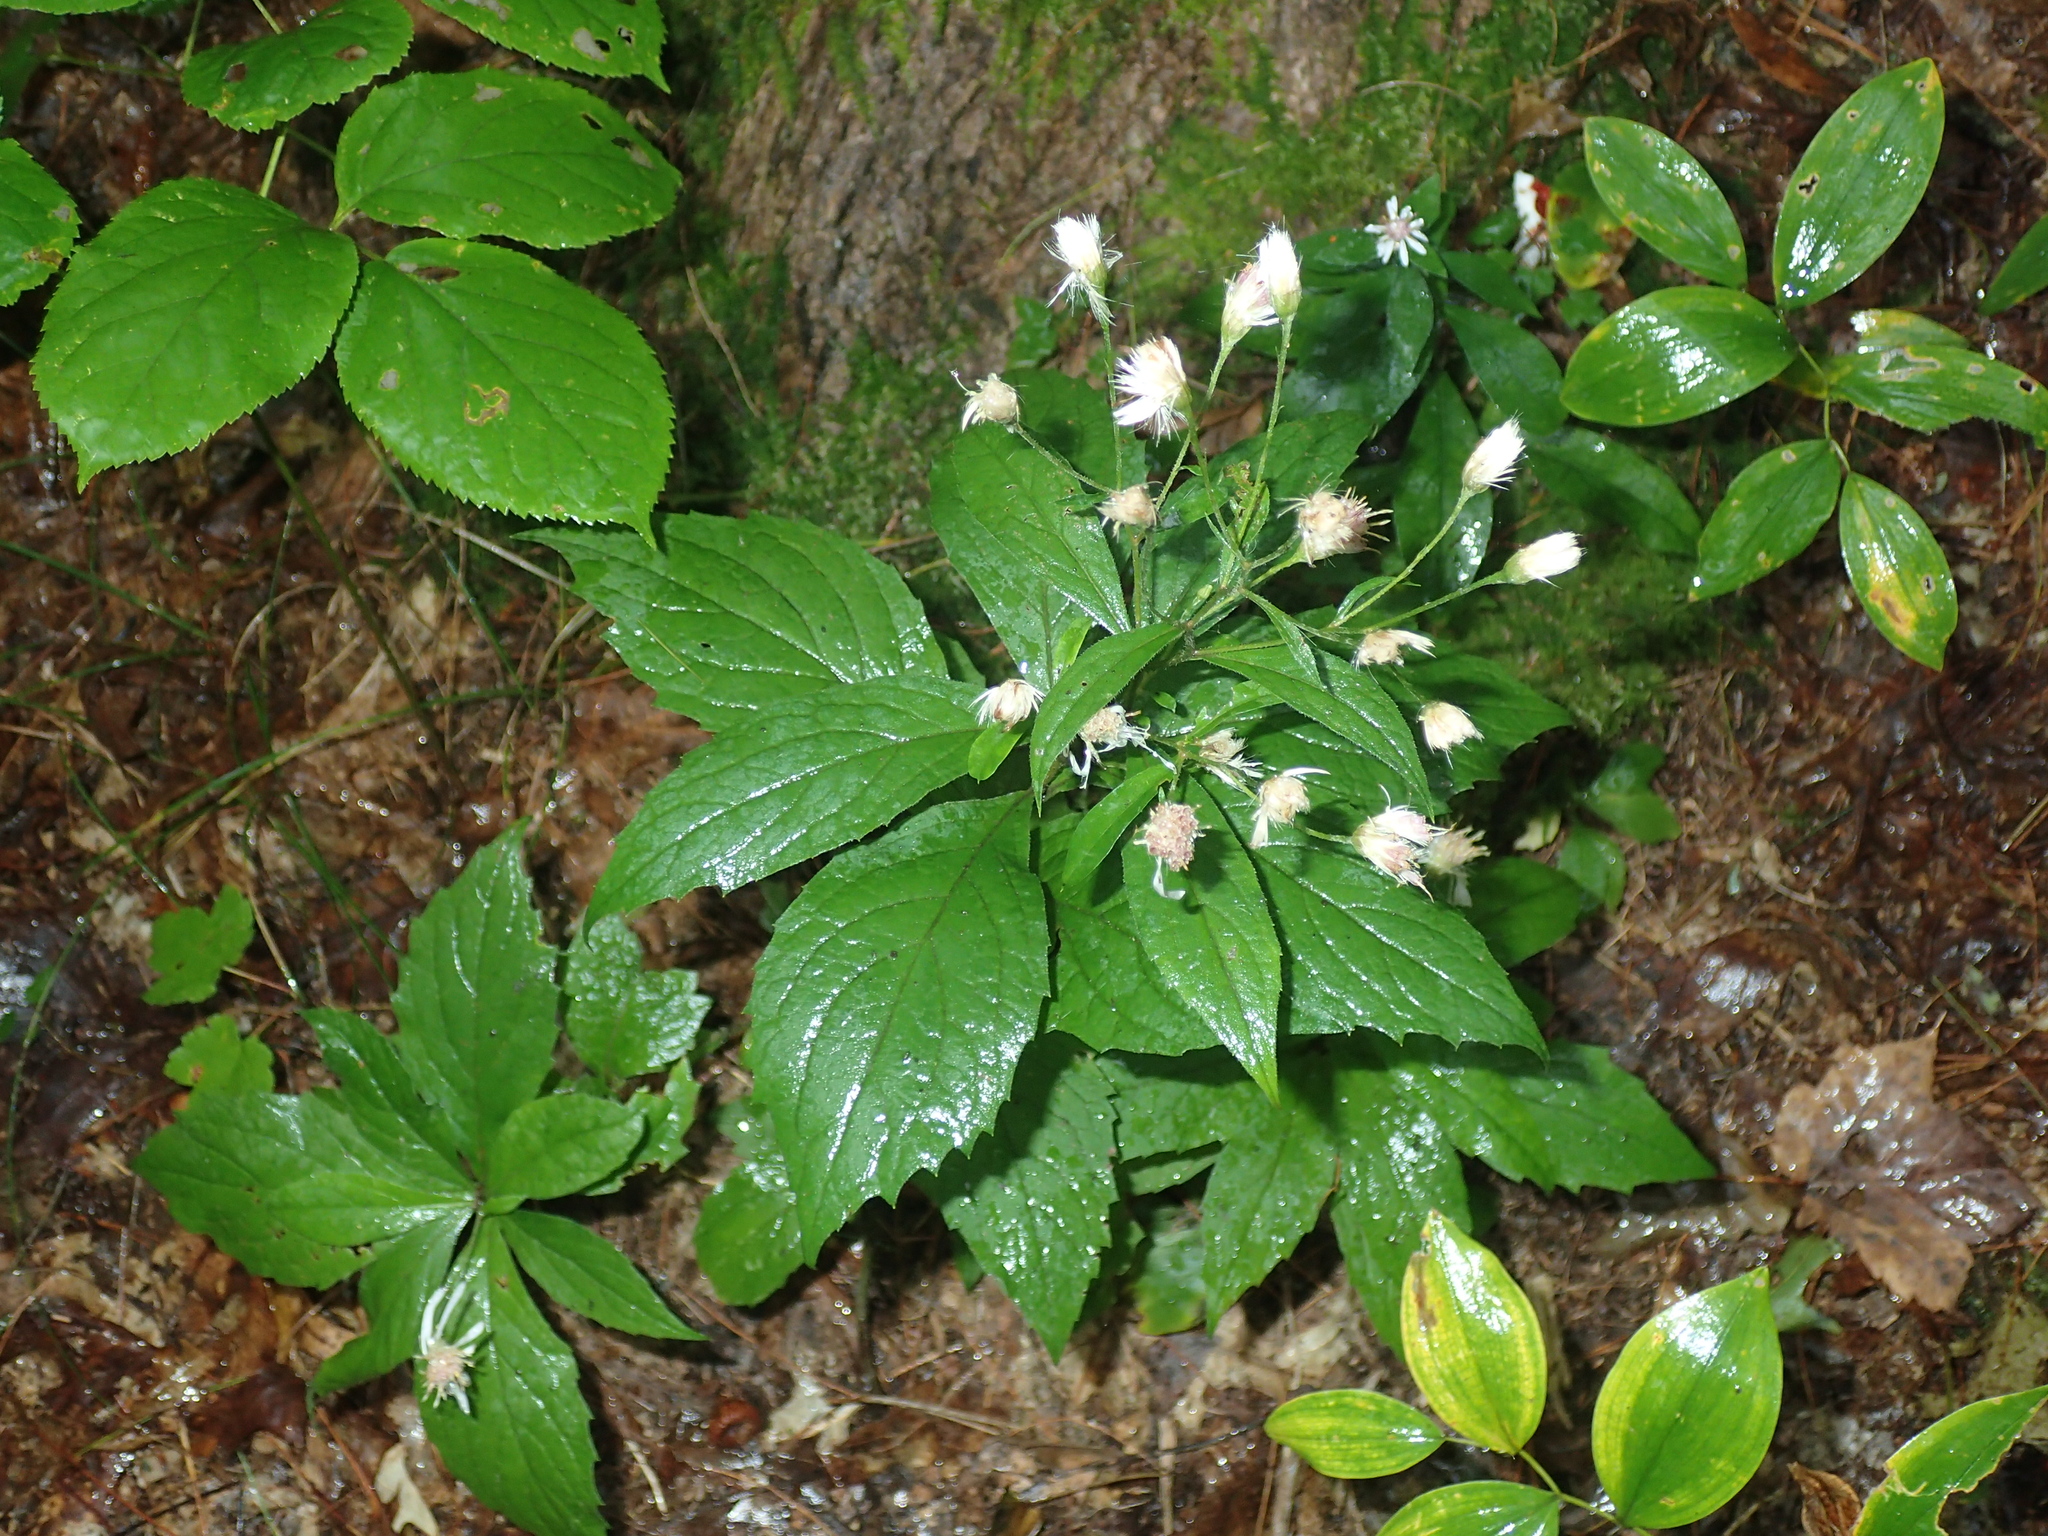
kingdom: Plantae
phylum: Tracheophyta
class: Magnoliopsida
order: Asterales
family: Asteraceae
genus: Oclemena
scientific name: Oclemena acuminata
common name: Mountain aster
